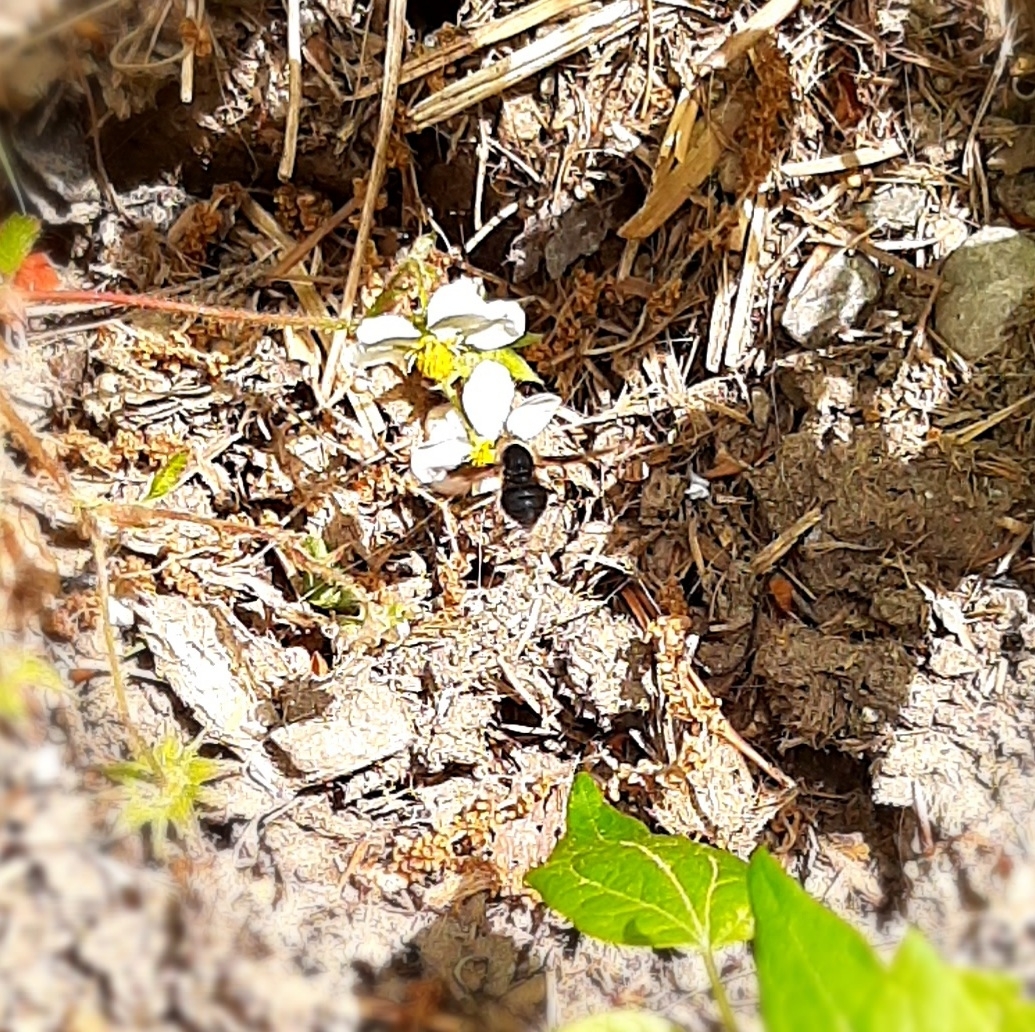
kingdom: Animalia
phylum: Arthropoda
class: Insecta
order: Diptera
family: Bombyliidae
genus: Bombylius
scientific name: Bombylius
